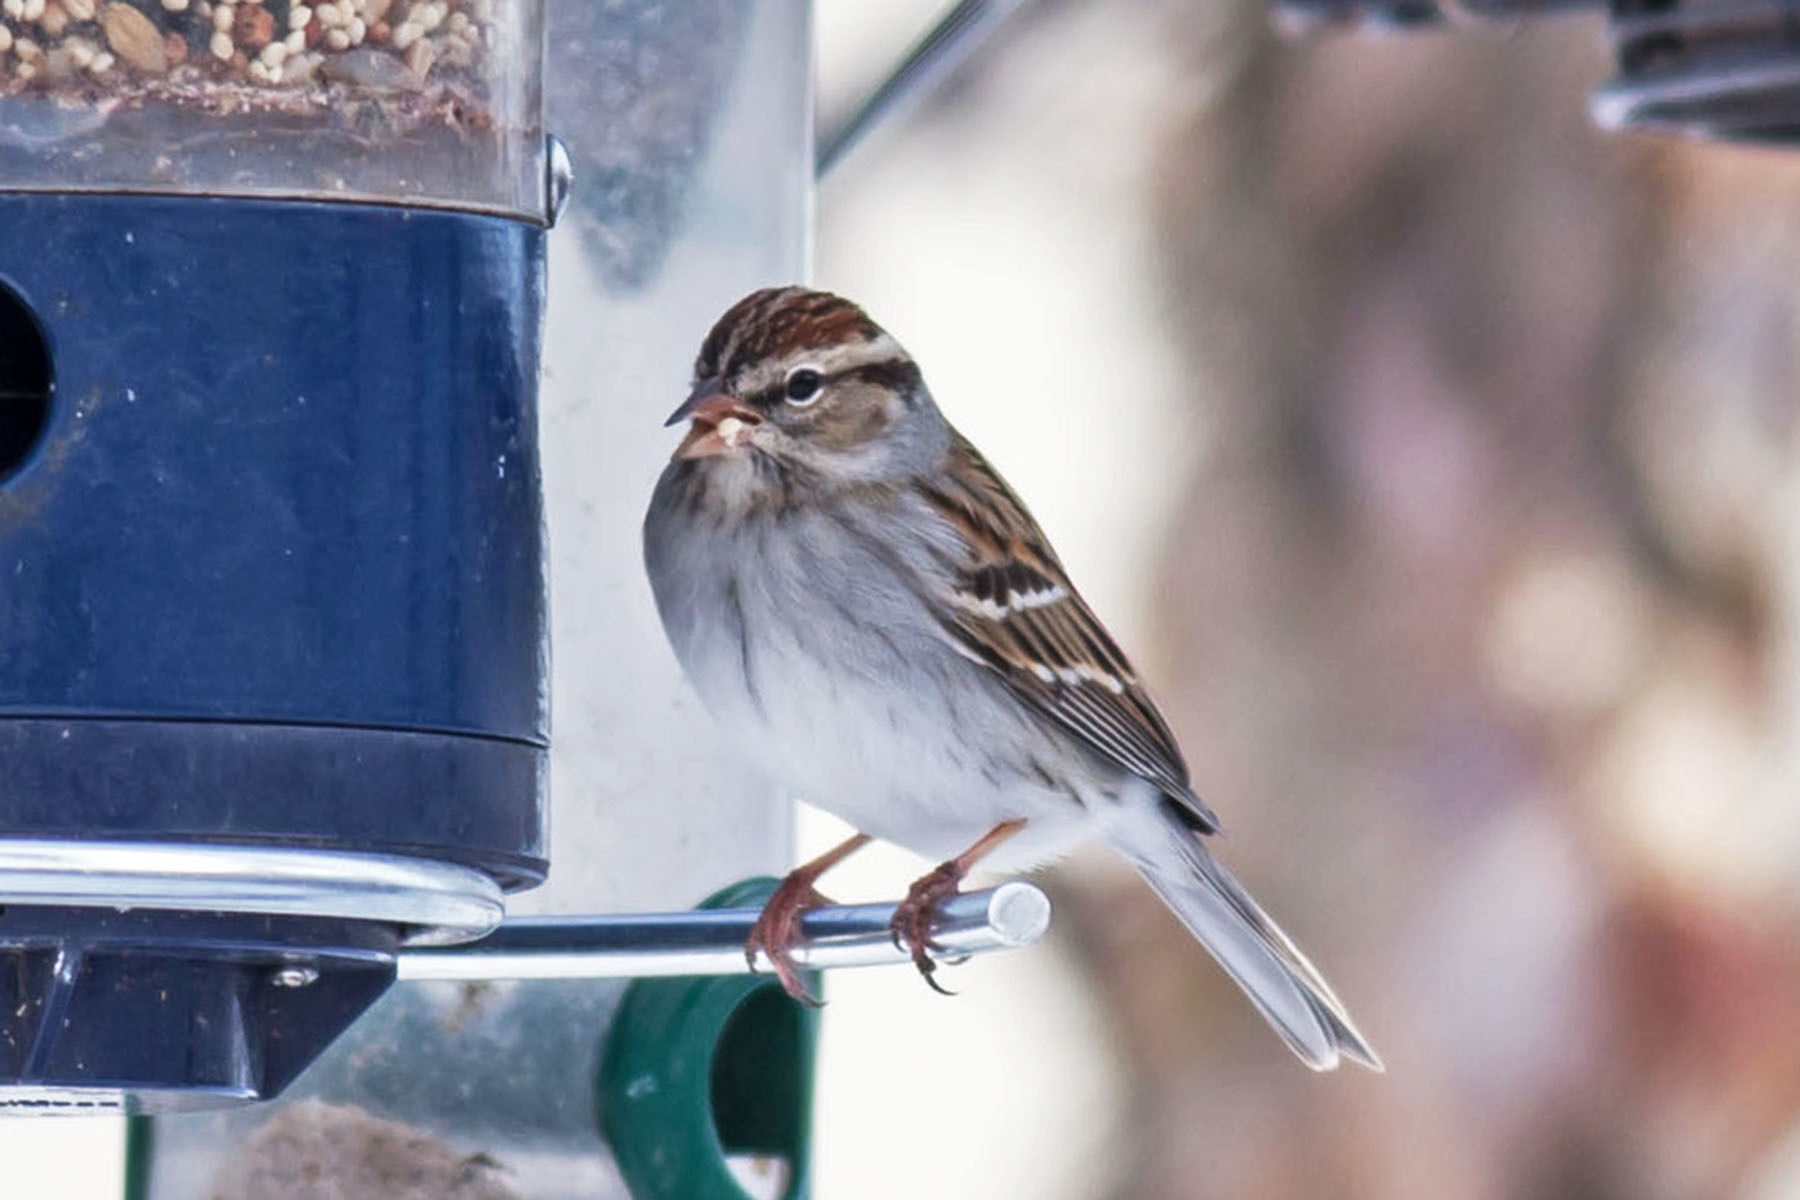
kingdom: Animalia
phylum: Chordata
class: Aves
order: Passeriformes
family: Passerellidae
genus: Spizella
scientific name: Spizella passerina
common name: Chipping sparrow
